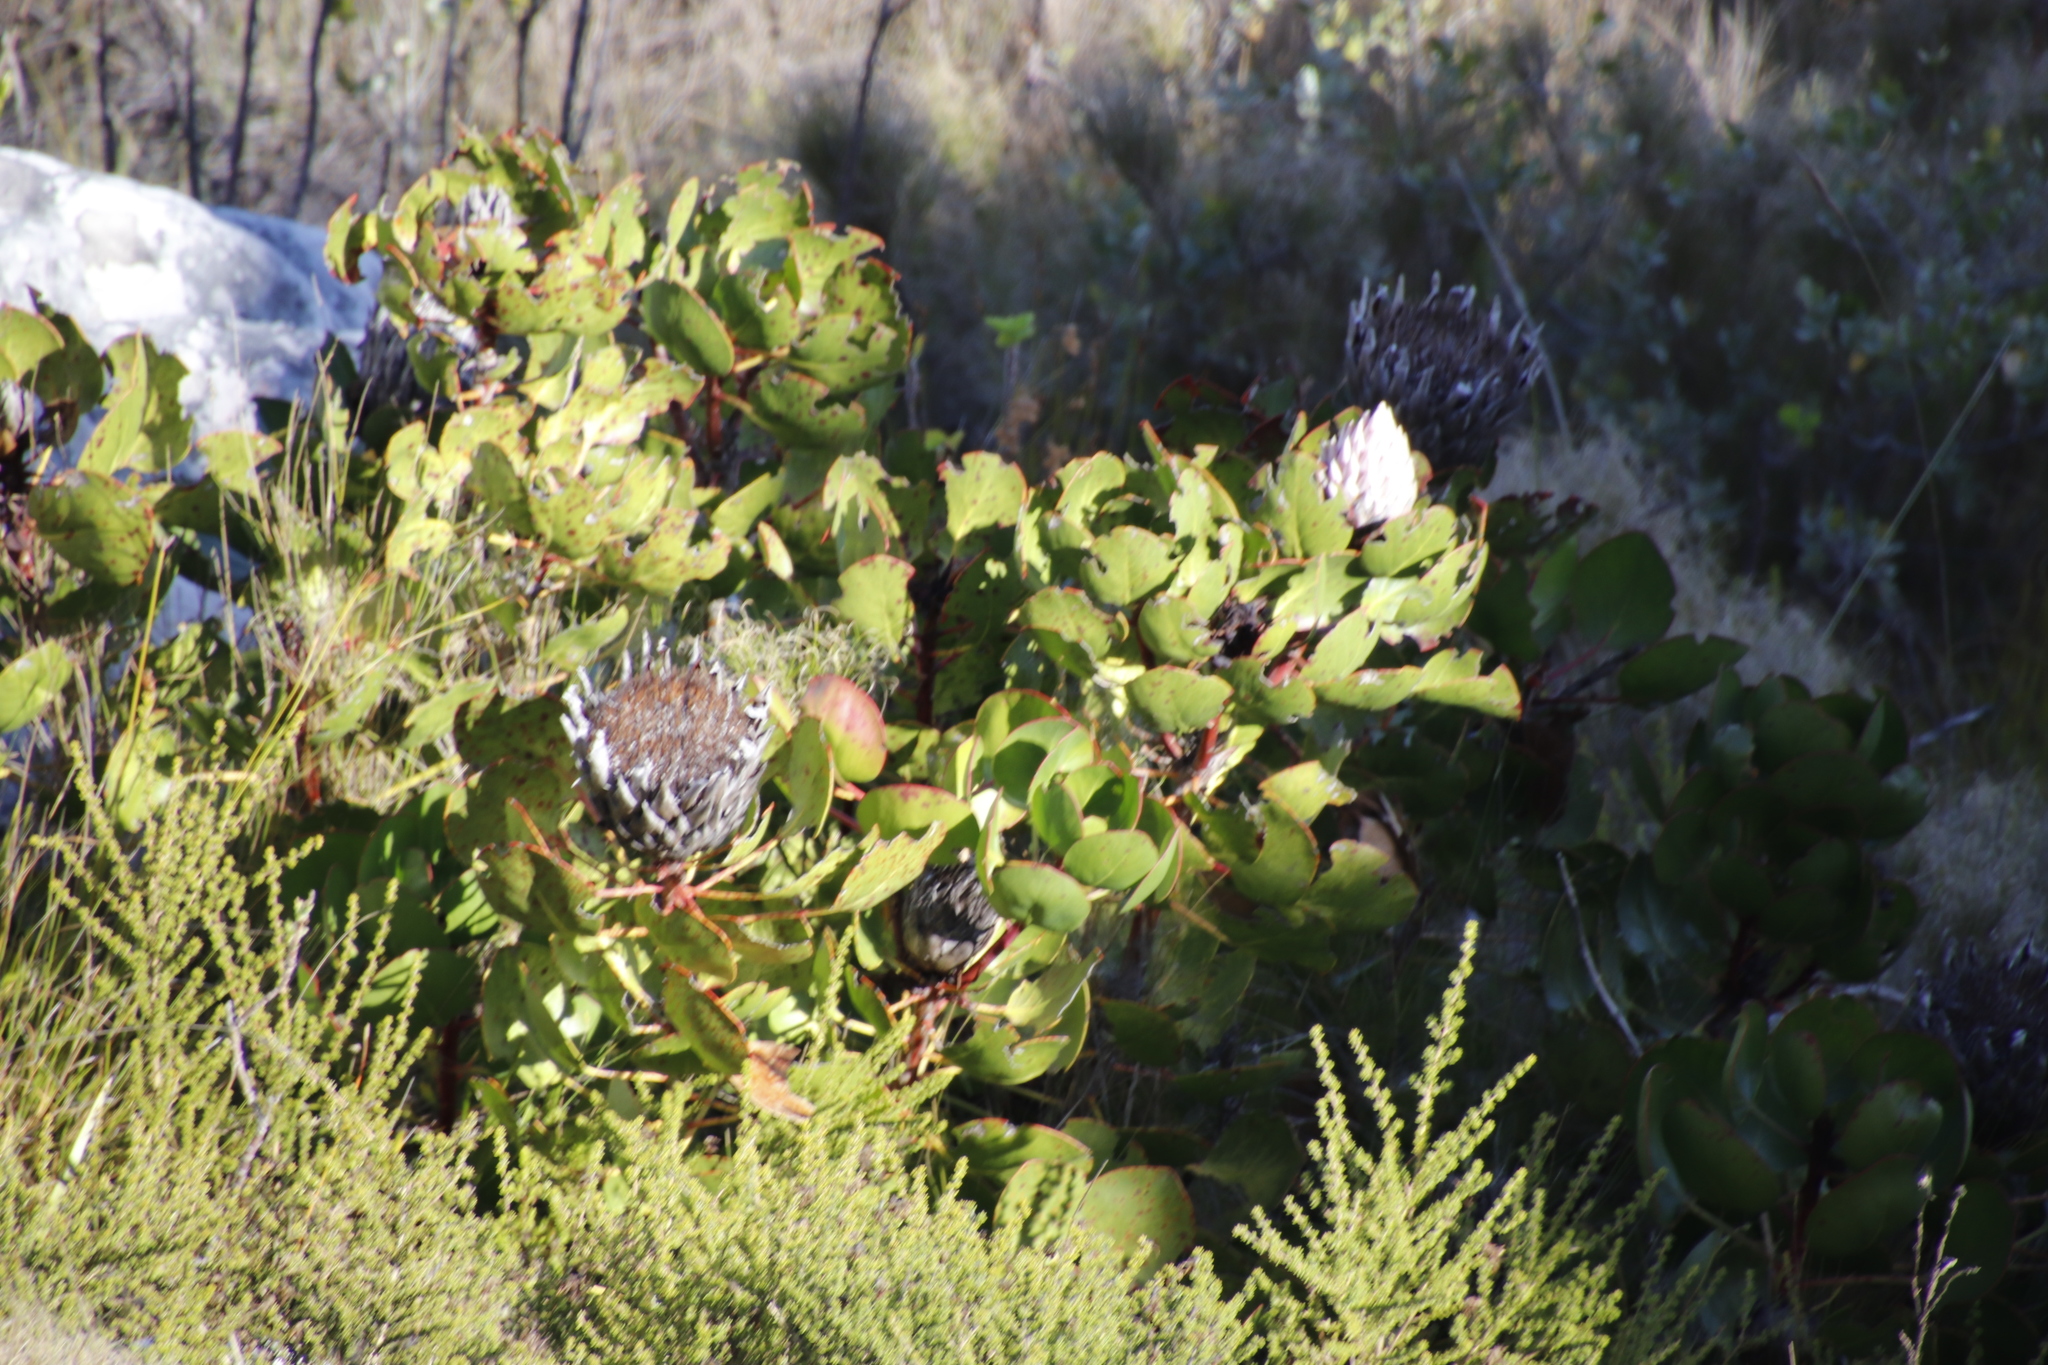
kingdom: Plantae
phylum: Tracheophyta
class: Magnoliopsida
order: Proteales
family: Proteaceae
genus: Protea
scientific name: Protea cynaroides
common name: King protea
